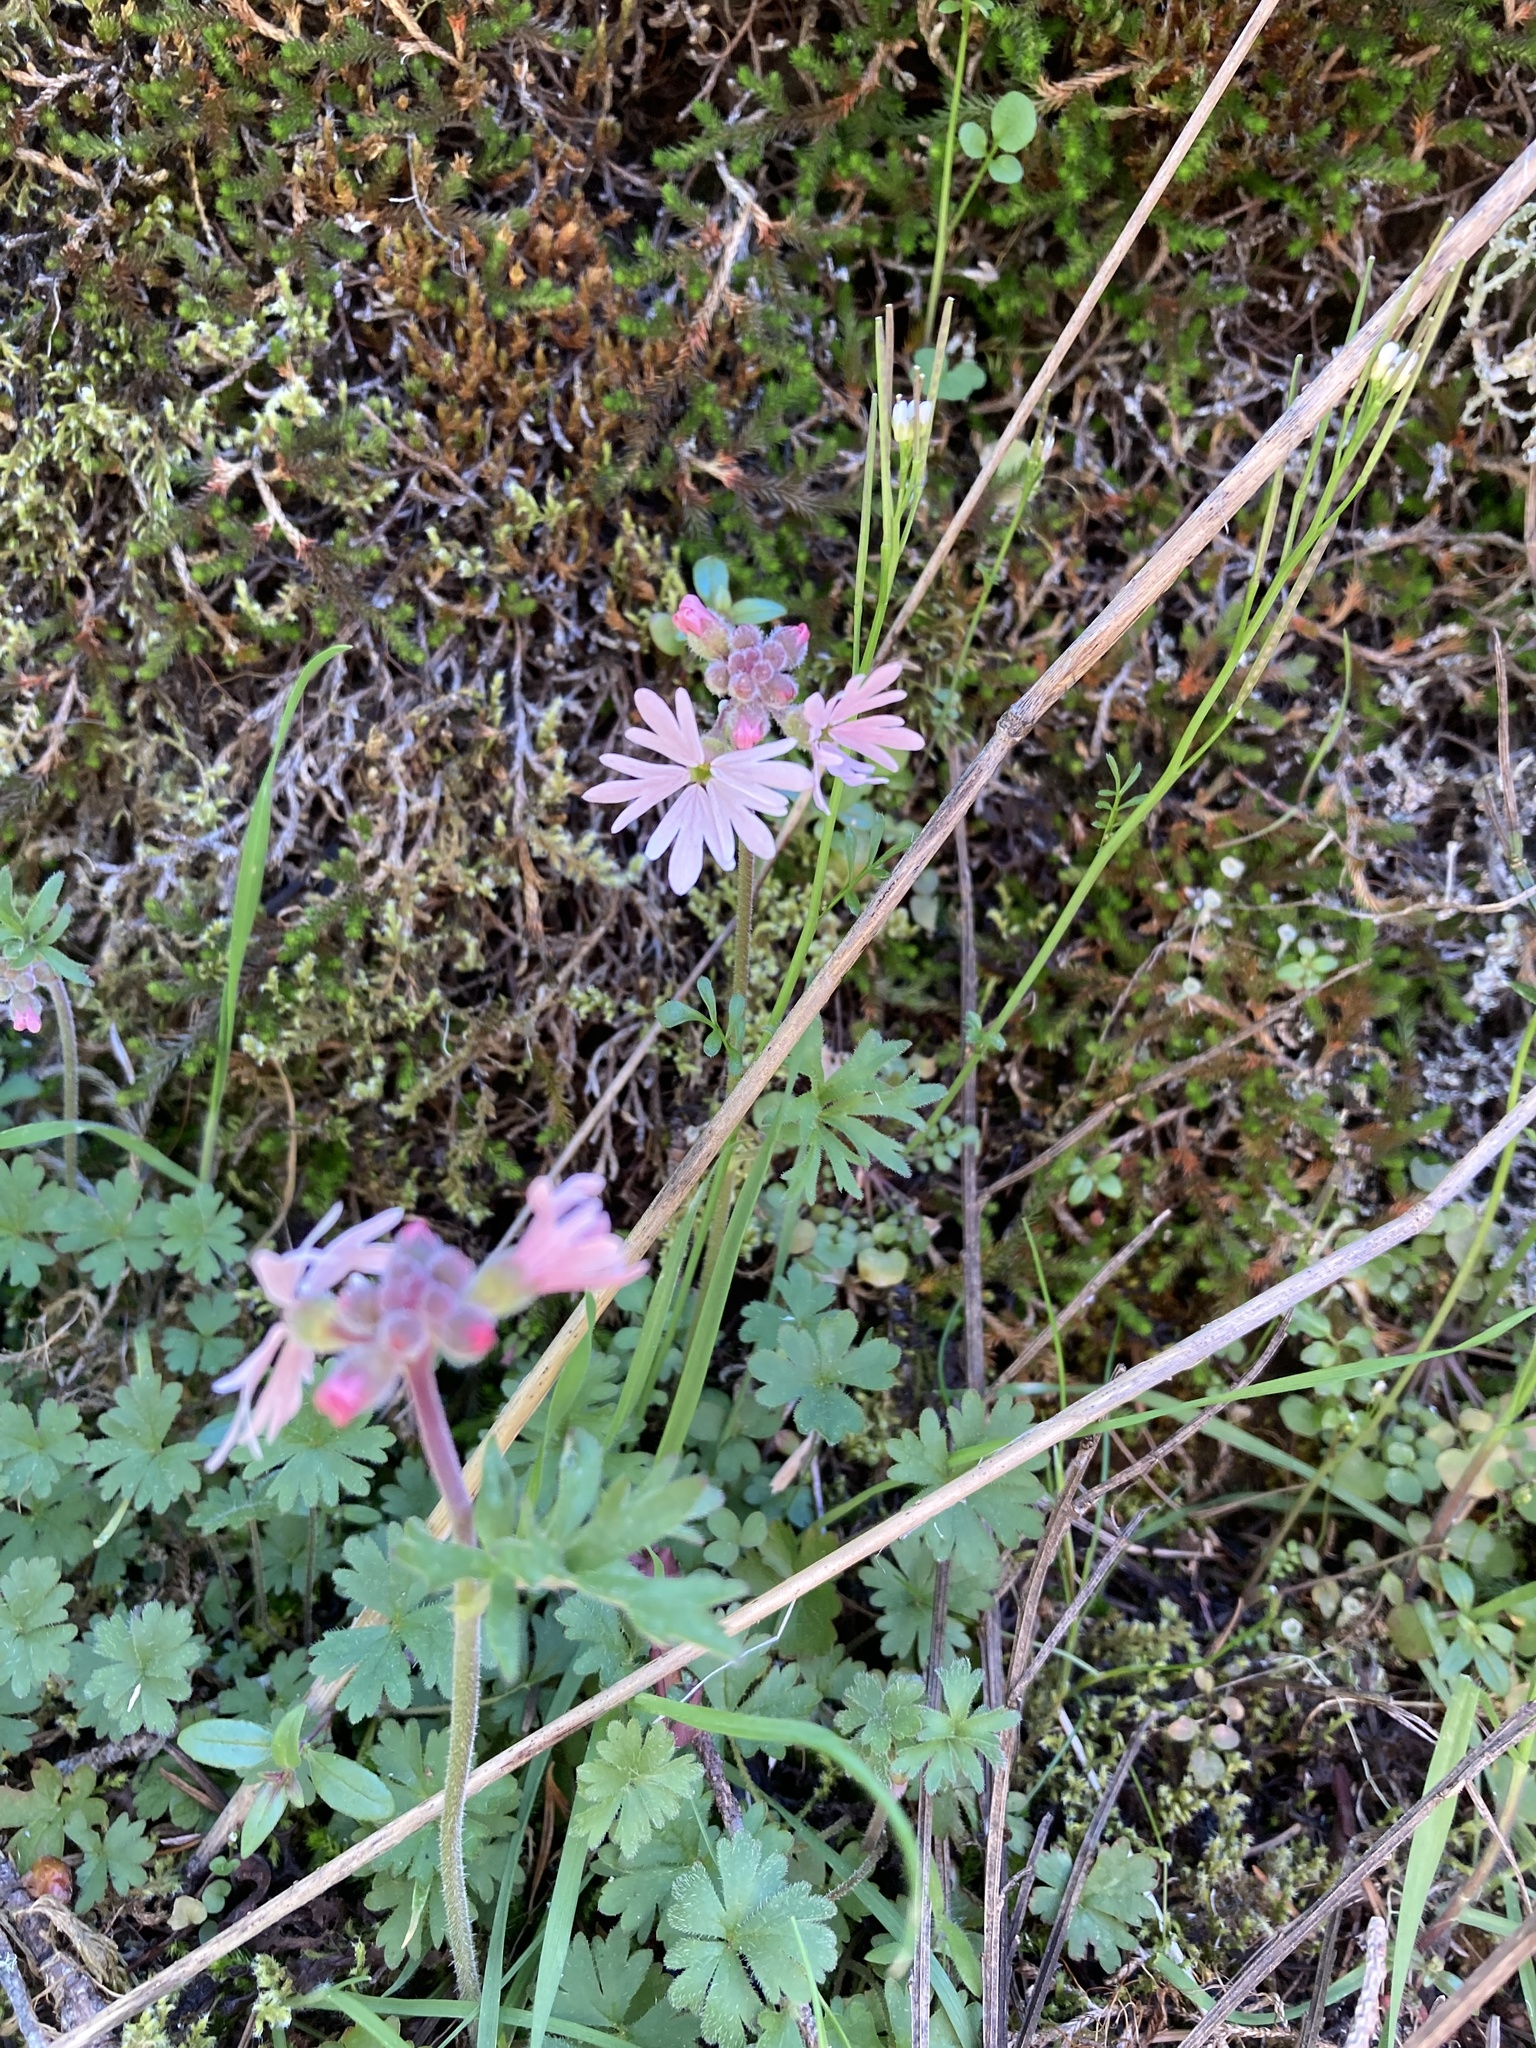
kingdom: Plantae
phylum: Tracheophyta
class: Magnoliopsida
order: Saxifragales
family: Saxifragaceae
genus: Lithophragma
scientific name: Lithophragma parviflorum
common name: Small-flowered fringe-cup
